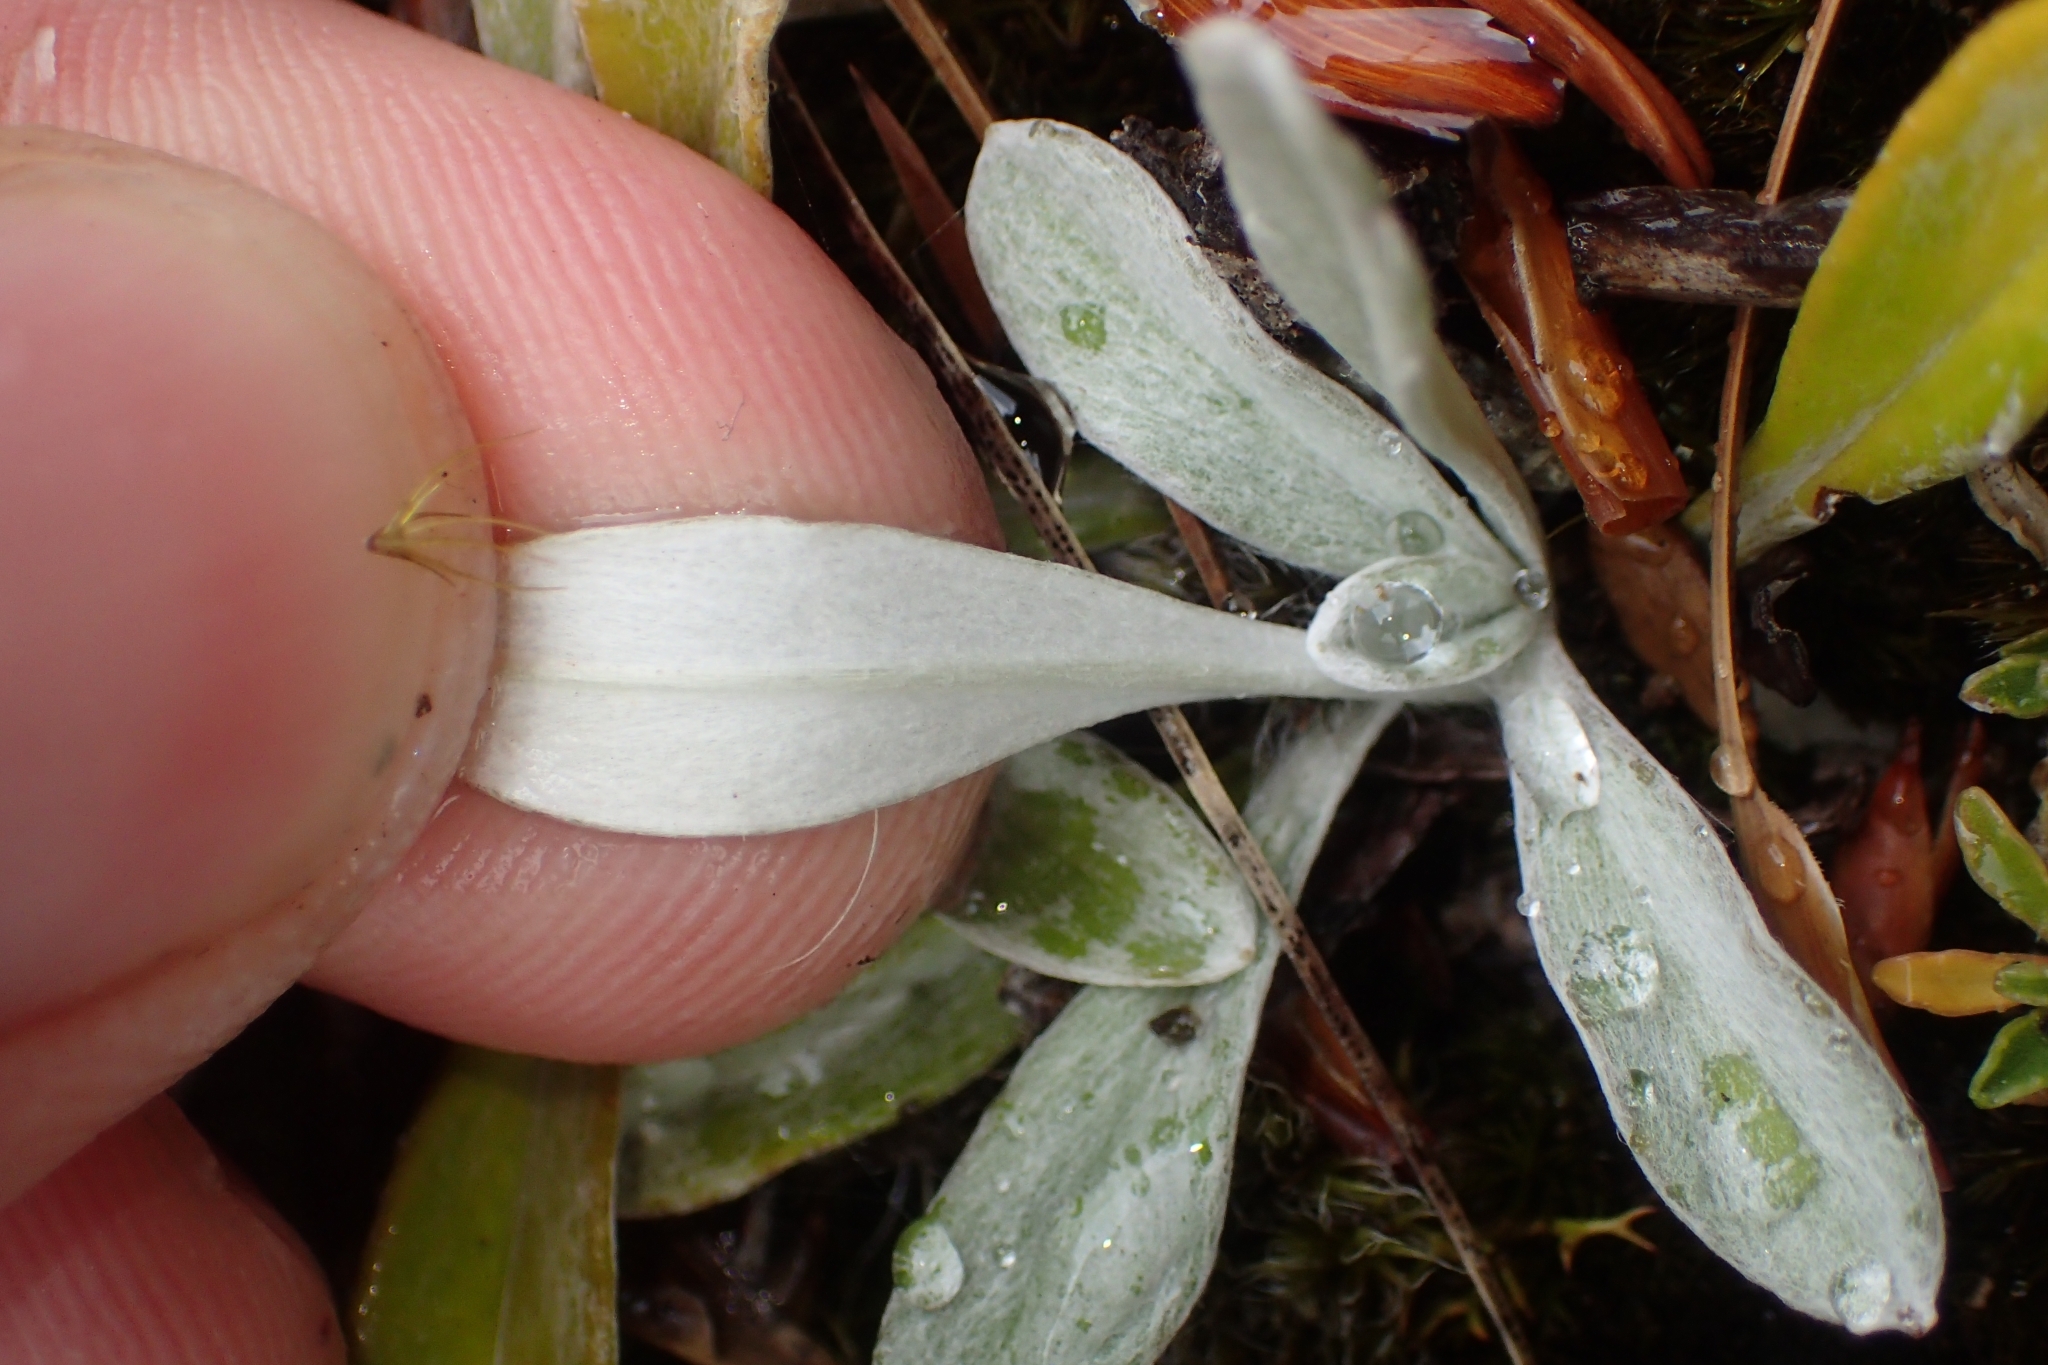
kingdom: Plantae
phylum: Tracheophyta
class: Magnoliopsida
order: Asterales
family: Asteraceae
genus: Euchiton
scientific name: Euchiton audax
